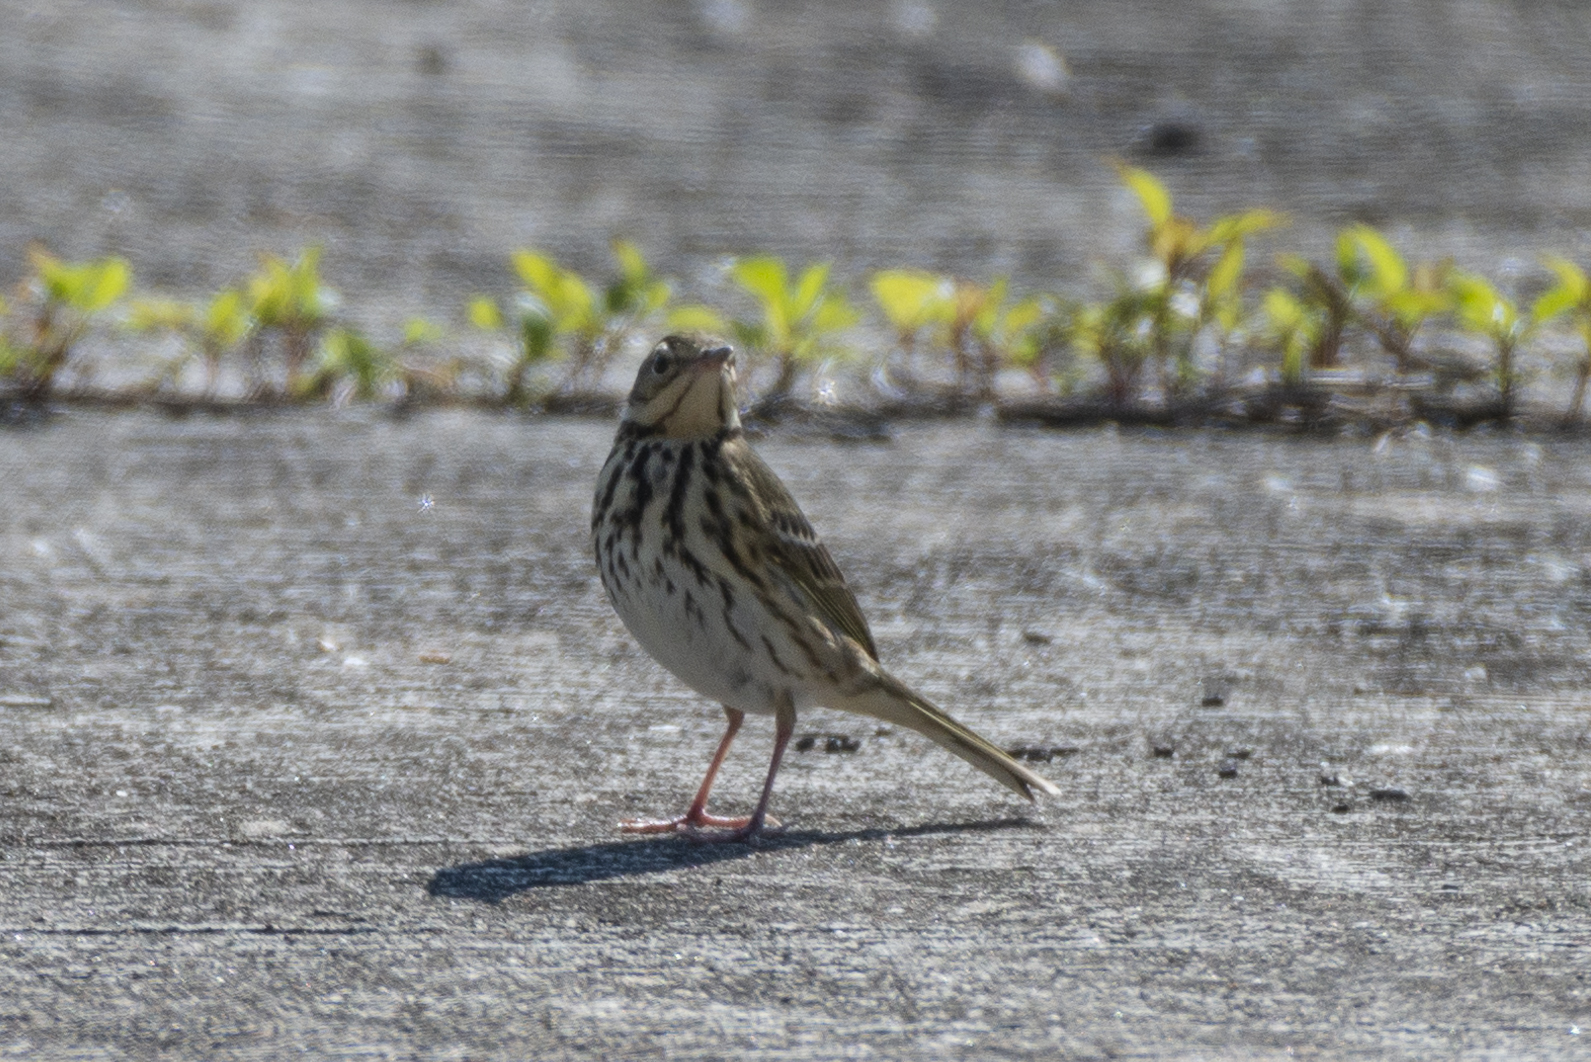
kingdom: Animalia
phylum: Chordata
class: Aves
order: Passeriformes
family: Motacillidae
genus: Anthus
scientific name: Anthus hodgsoni
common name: Olive-backed pipit
